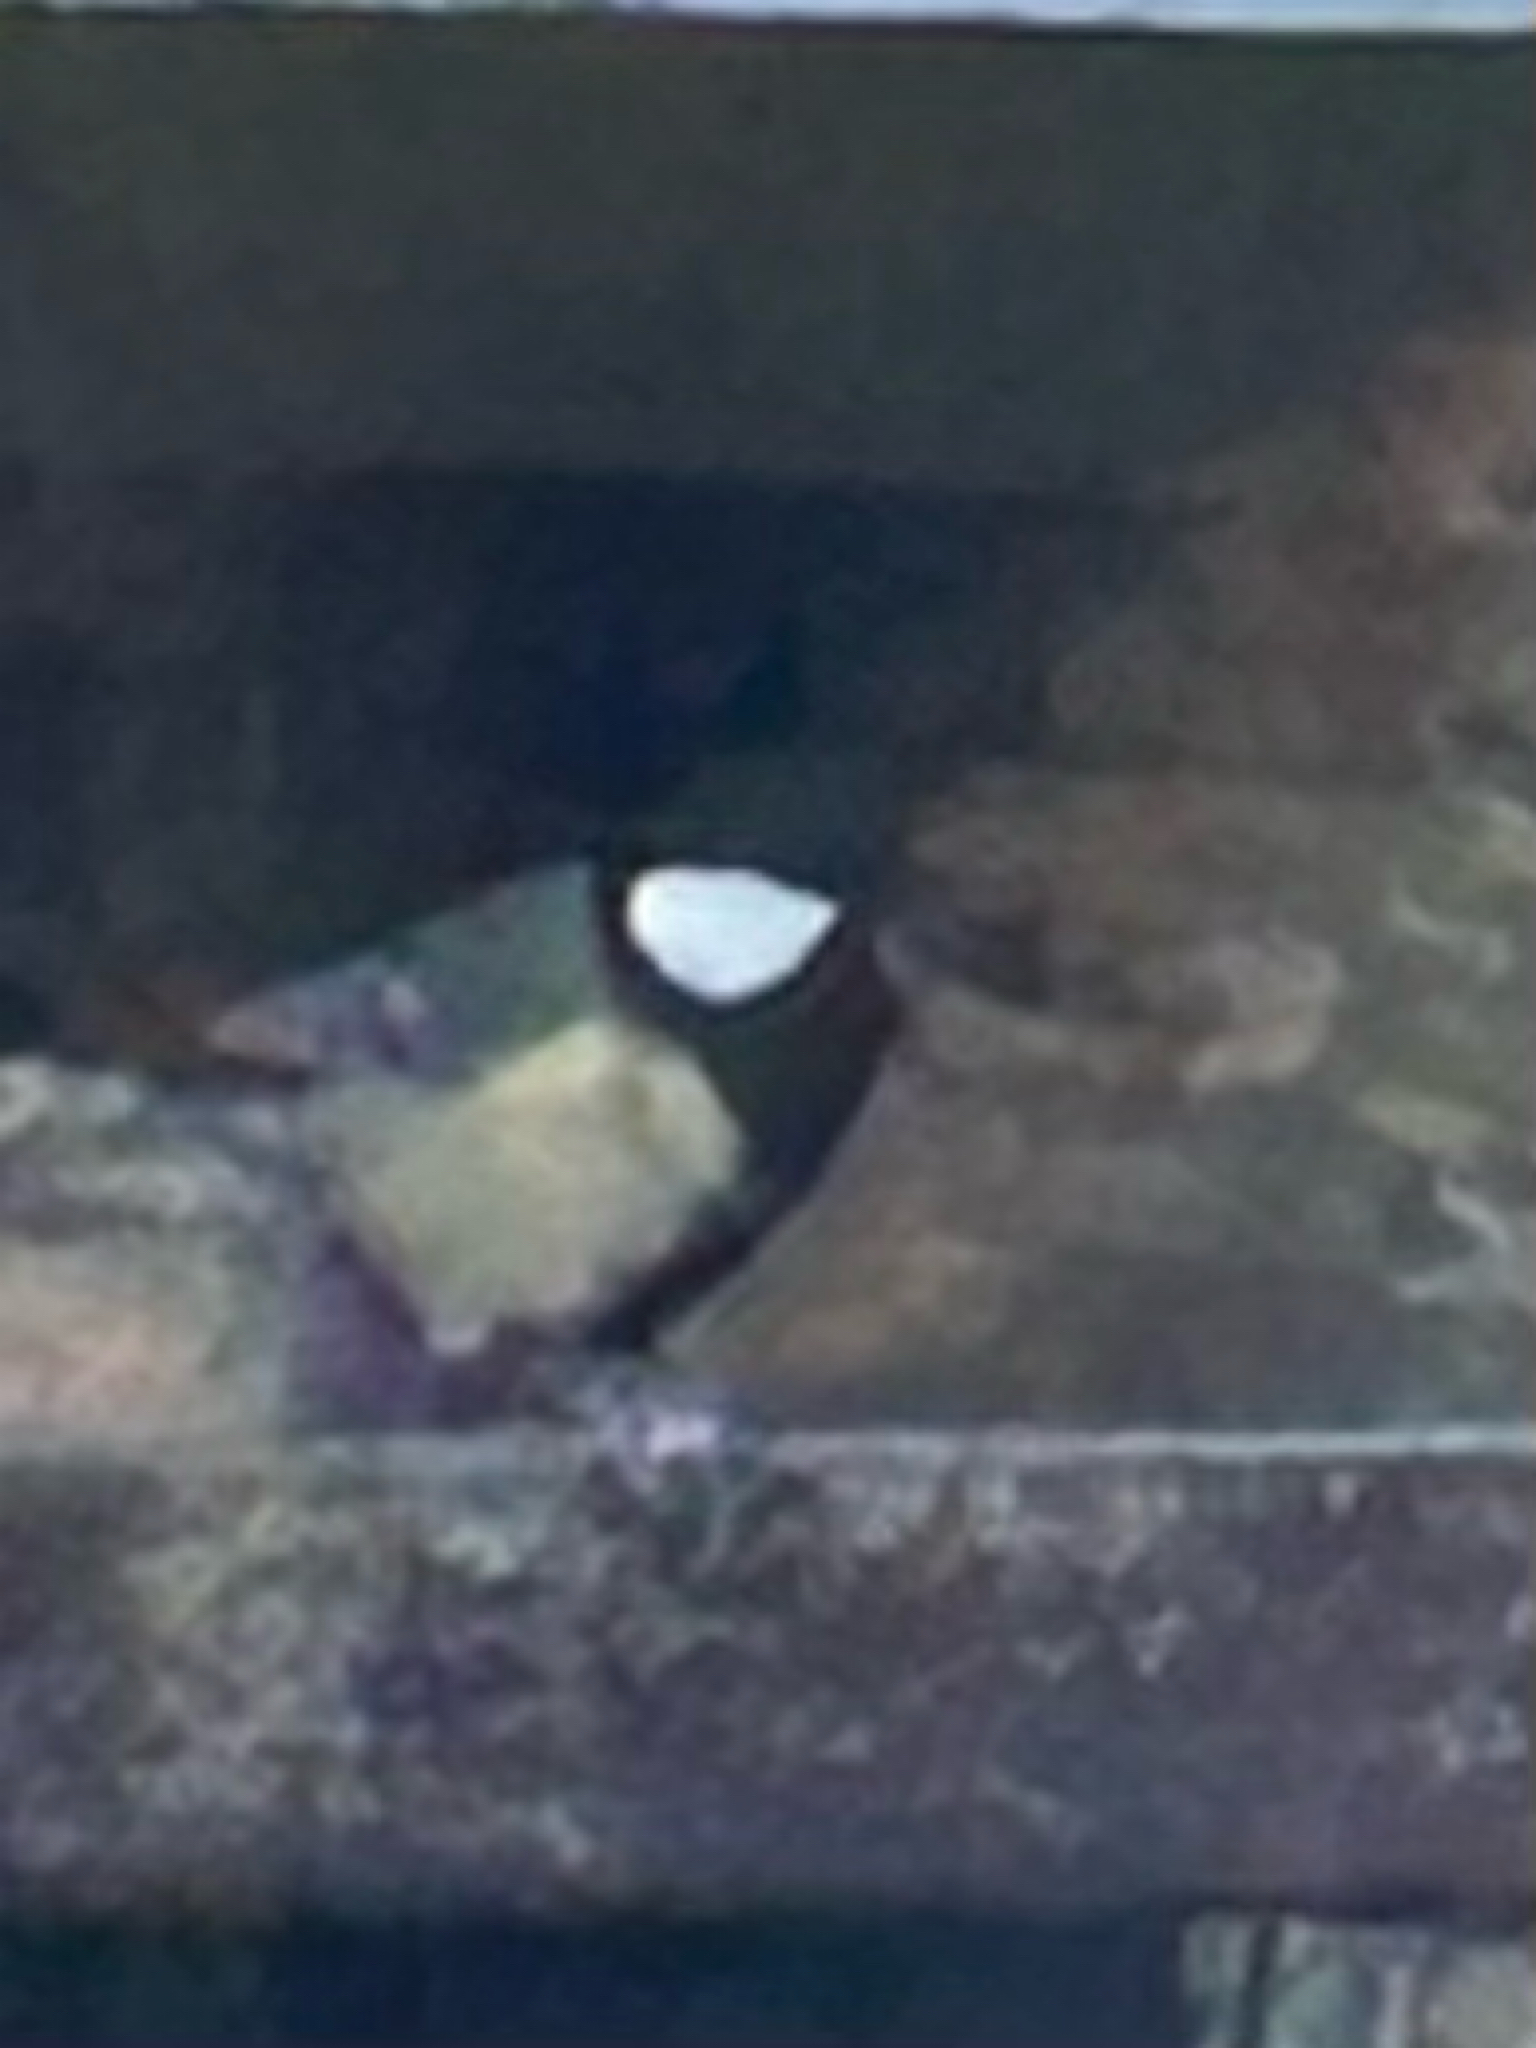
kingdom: Animalia
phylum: Chordata
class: Aves
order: Passeriformes
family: Paridae
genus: Parus
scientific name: Parus major
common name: Great tit
